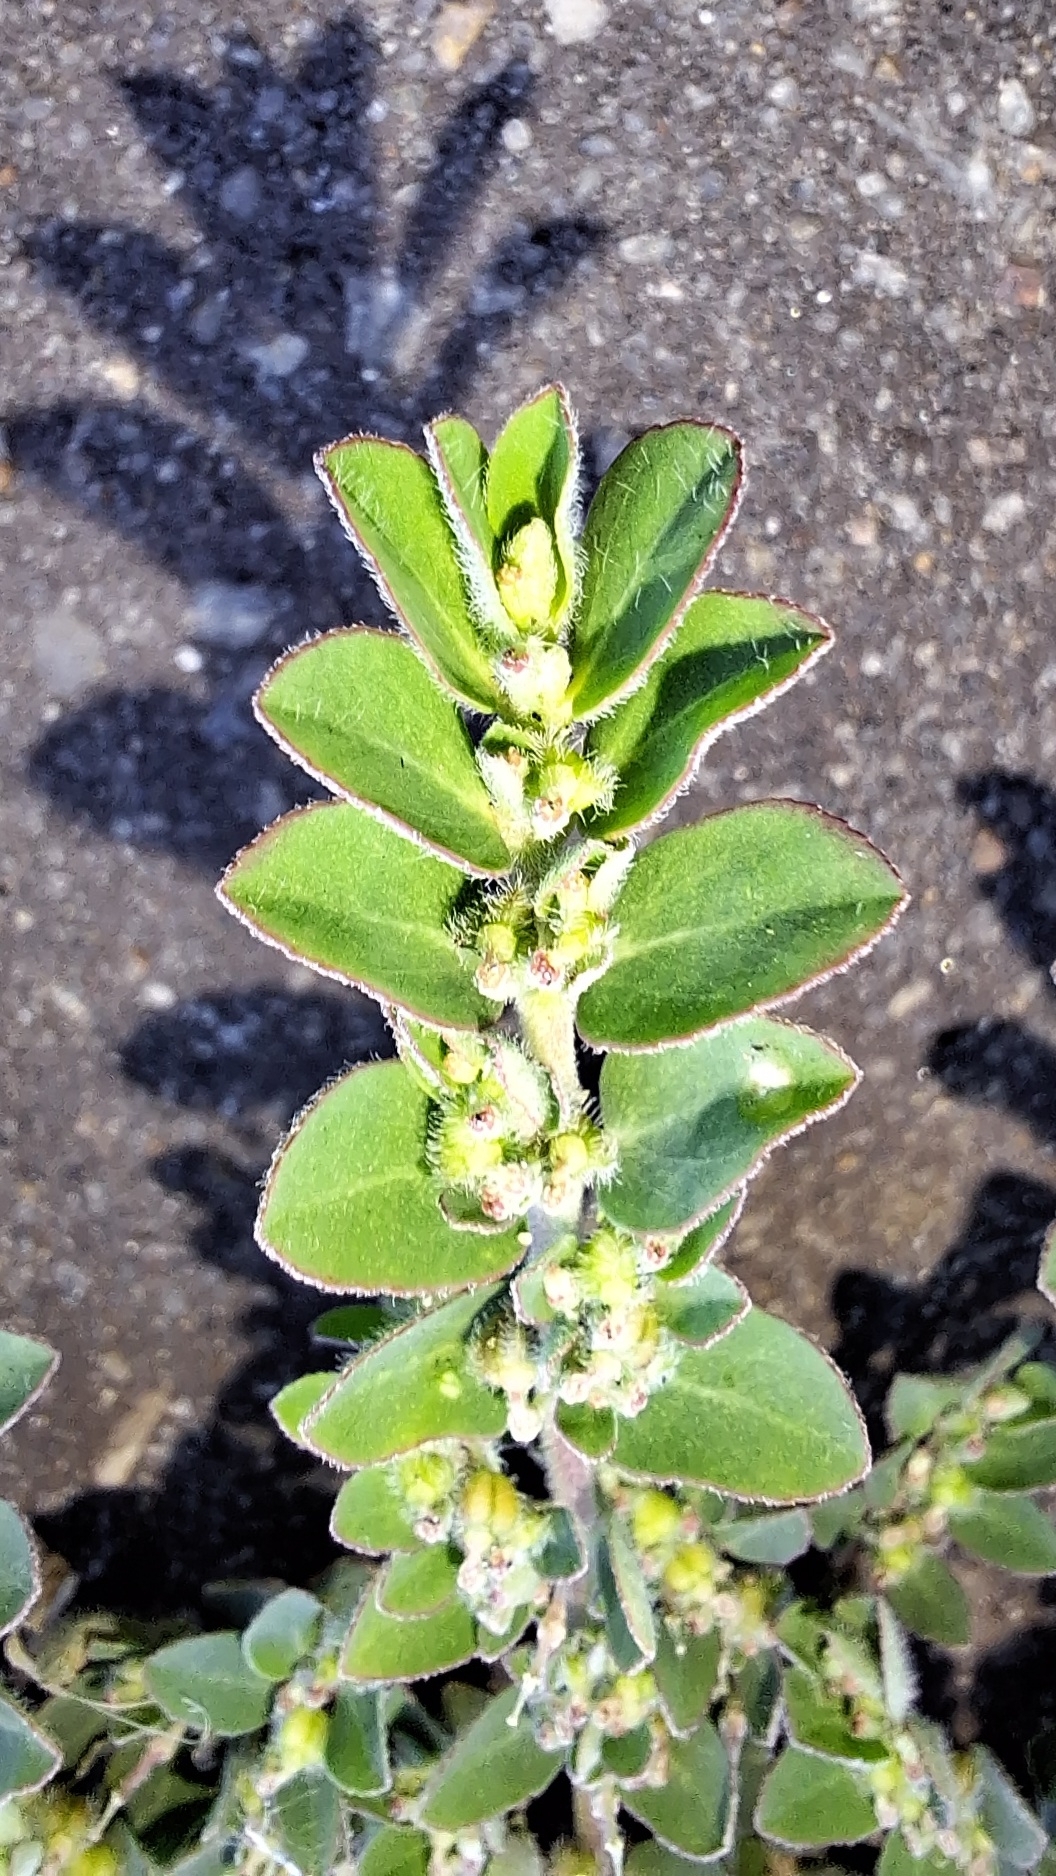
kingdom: Plantae
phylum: Tracheophyta
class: Magnoliopsida
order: Malpighiales
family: Euphorbiaceae
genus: Euphorbia
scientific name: Euphorbia prostrata
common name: Prostrate sandmat
